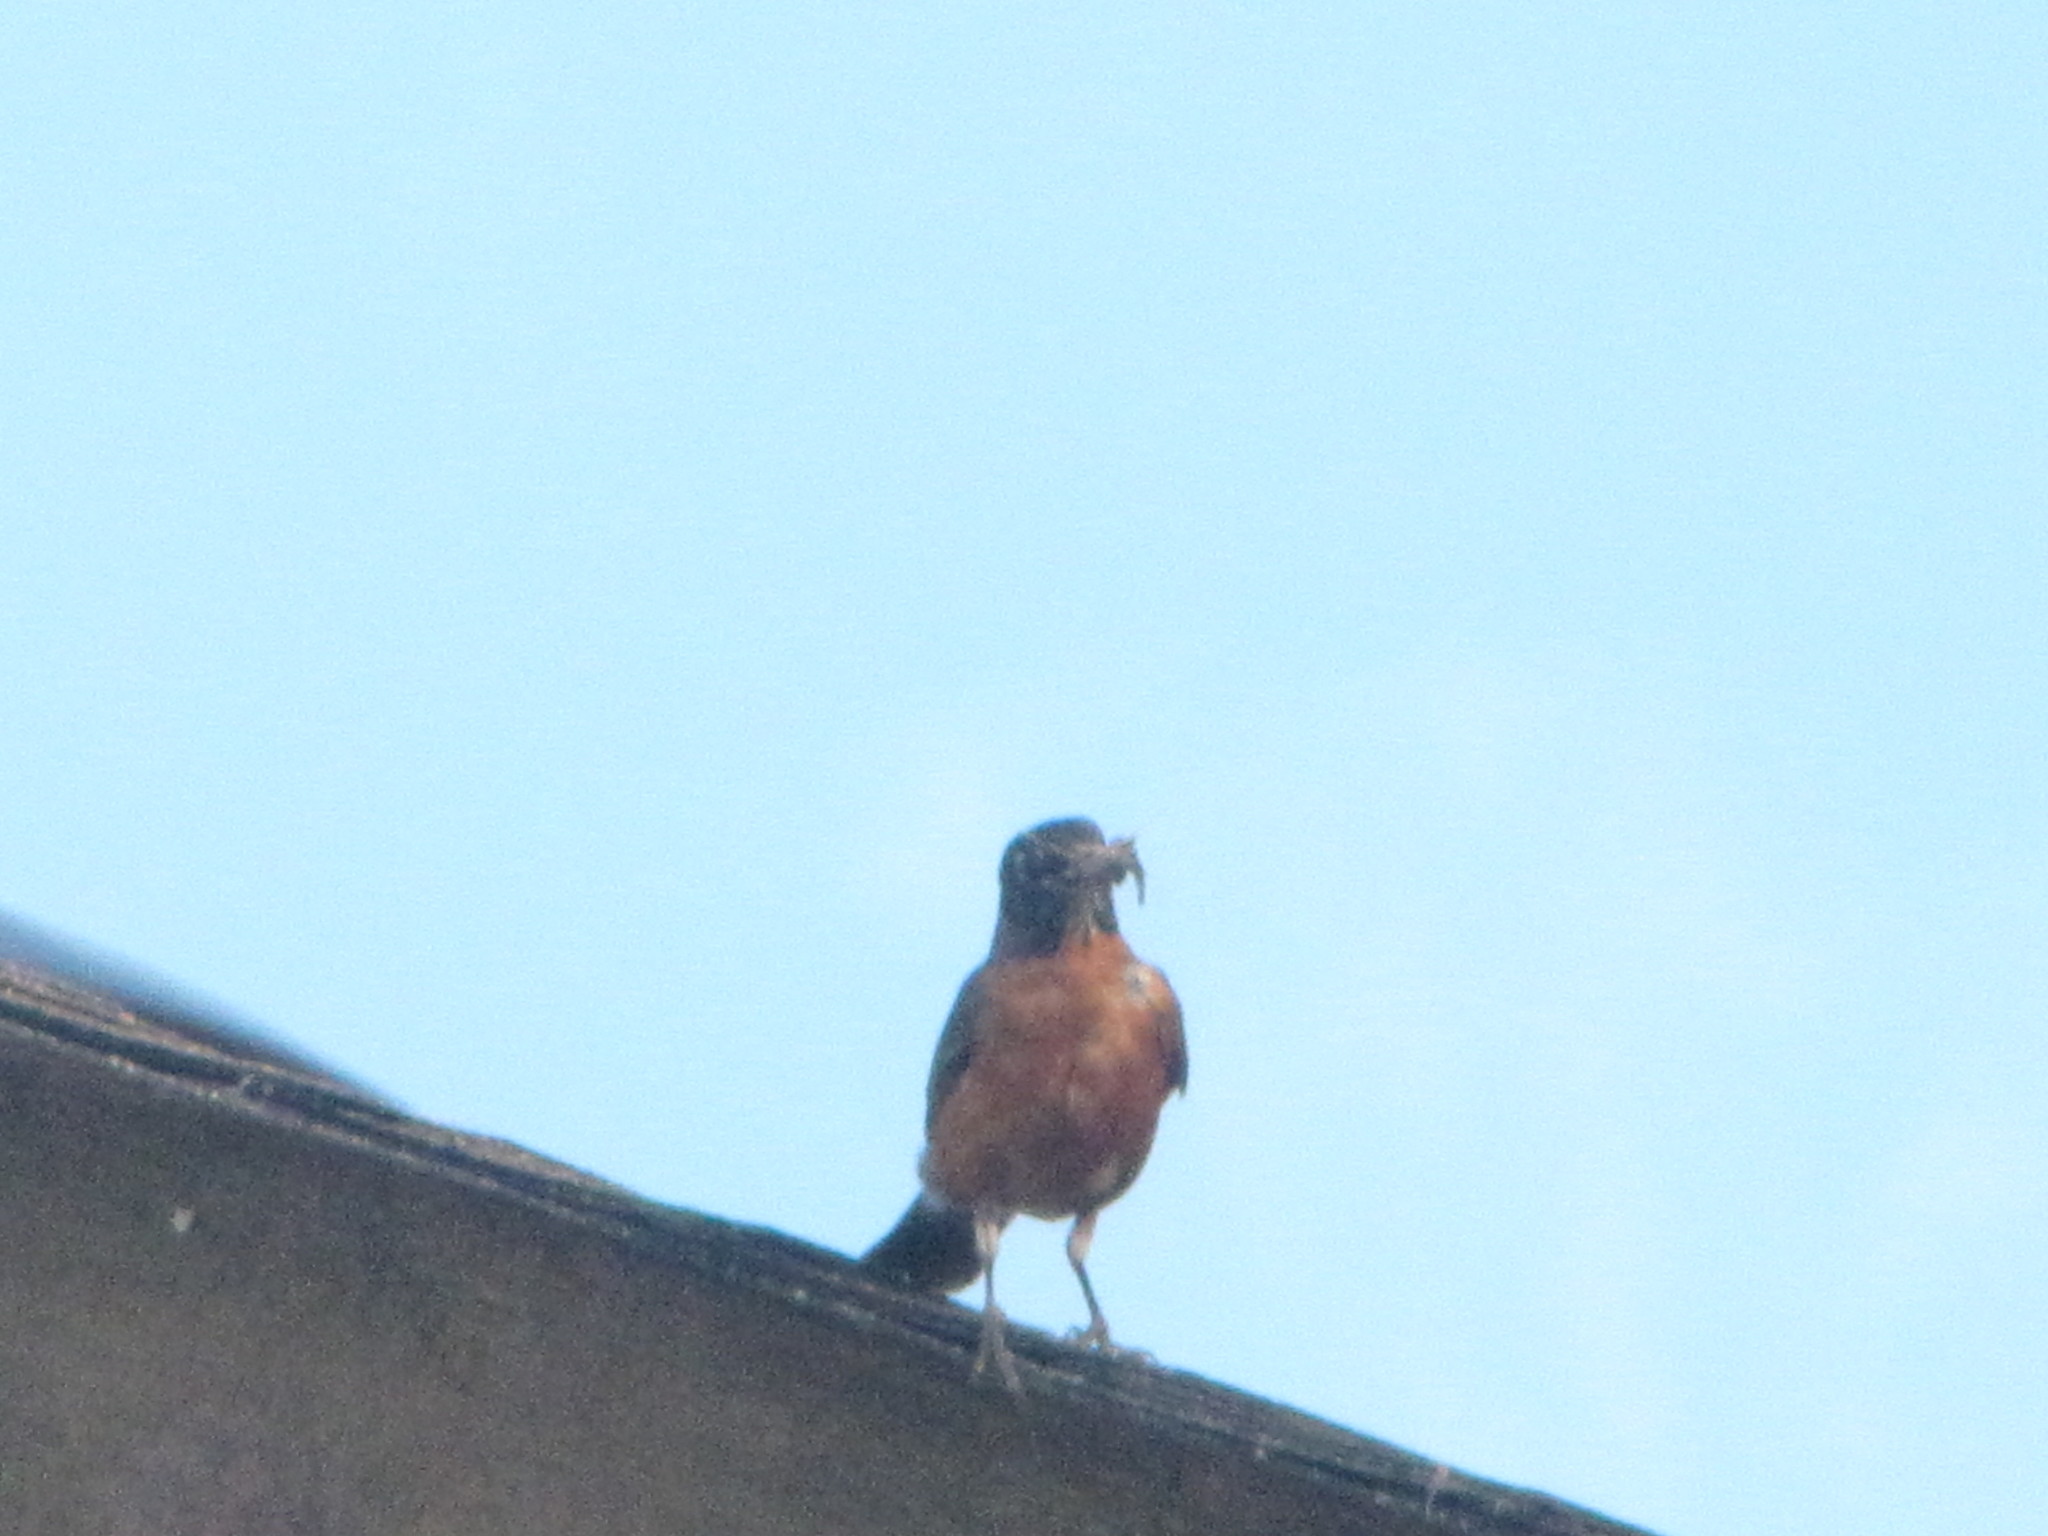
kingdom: Animalia
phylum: Chordata
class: Aves
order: Passeriformes
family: Turdidae
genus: Turdus
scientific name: Turdus migratorius
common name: American robin
